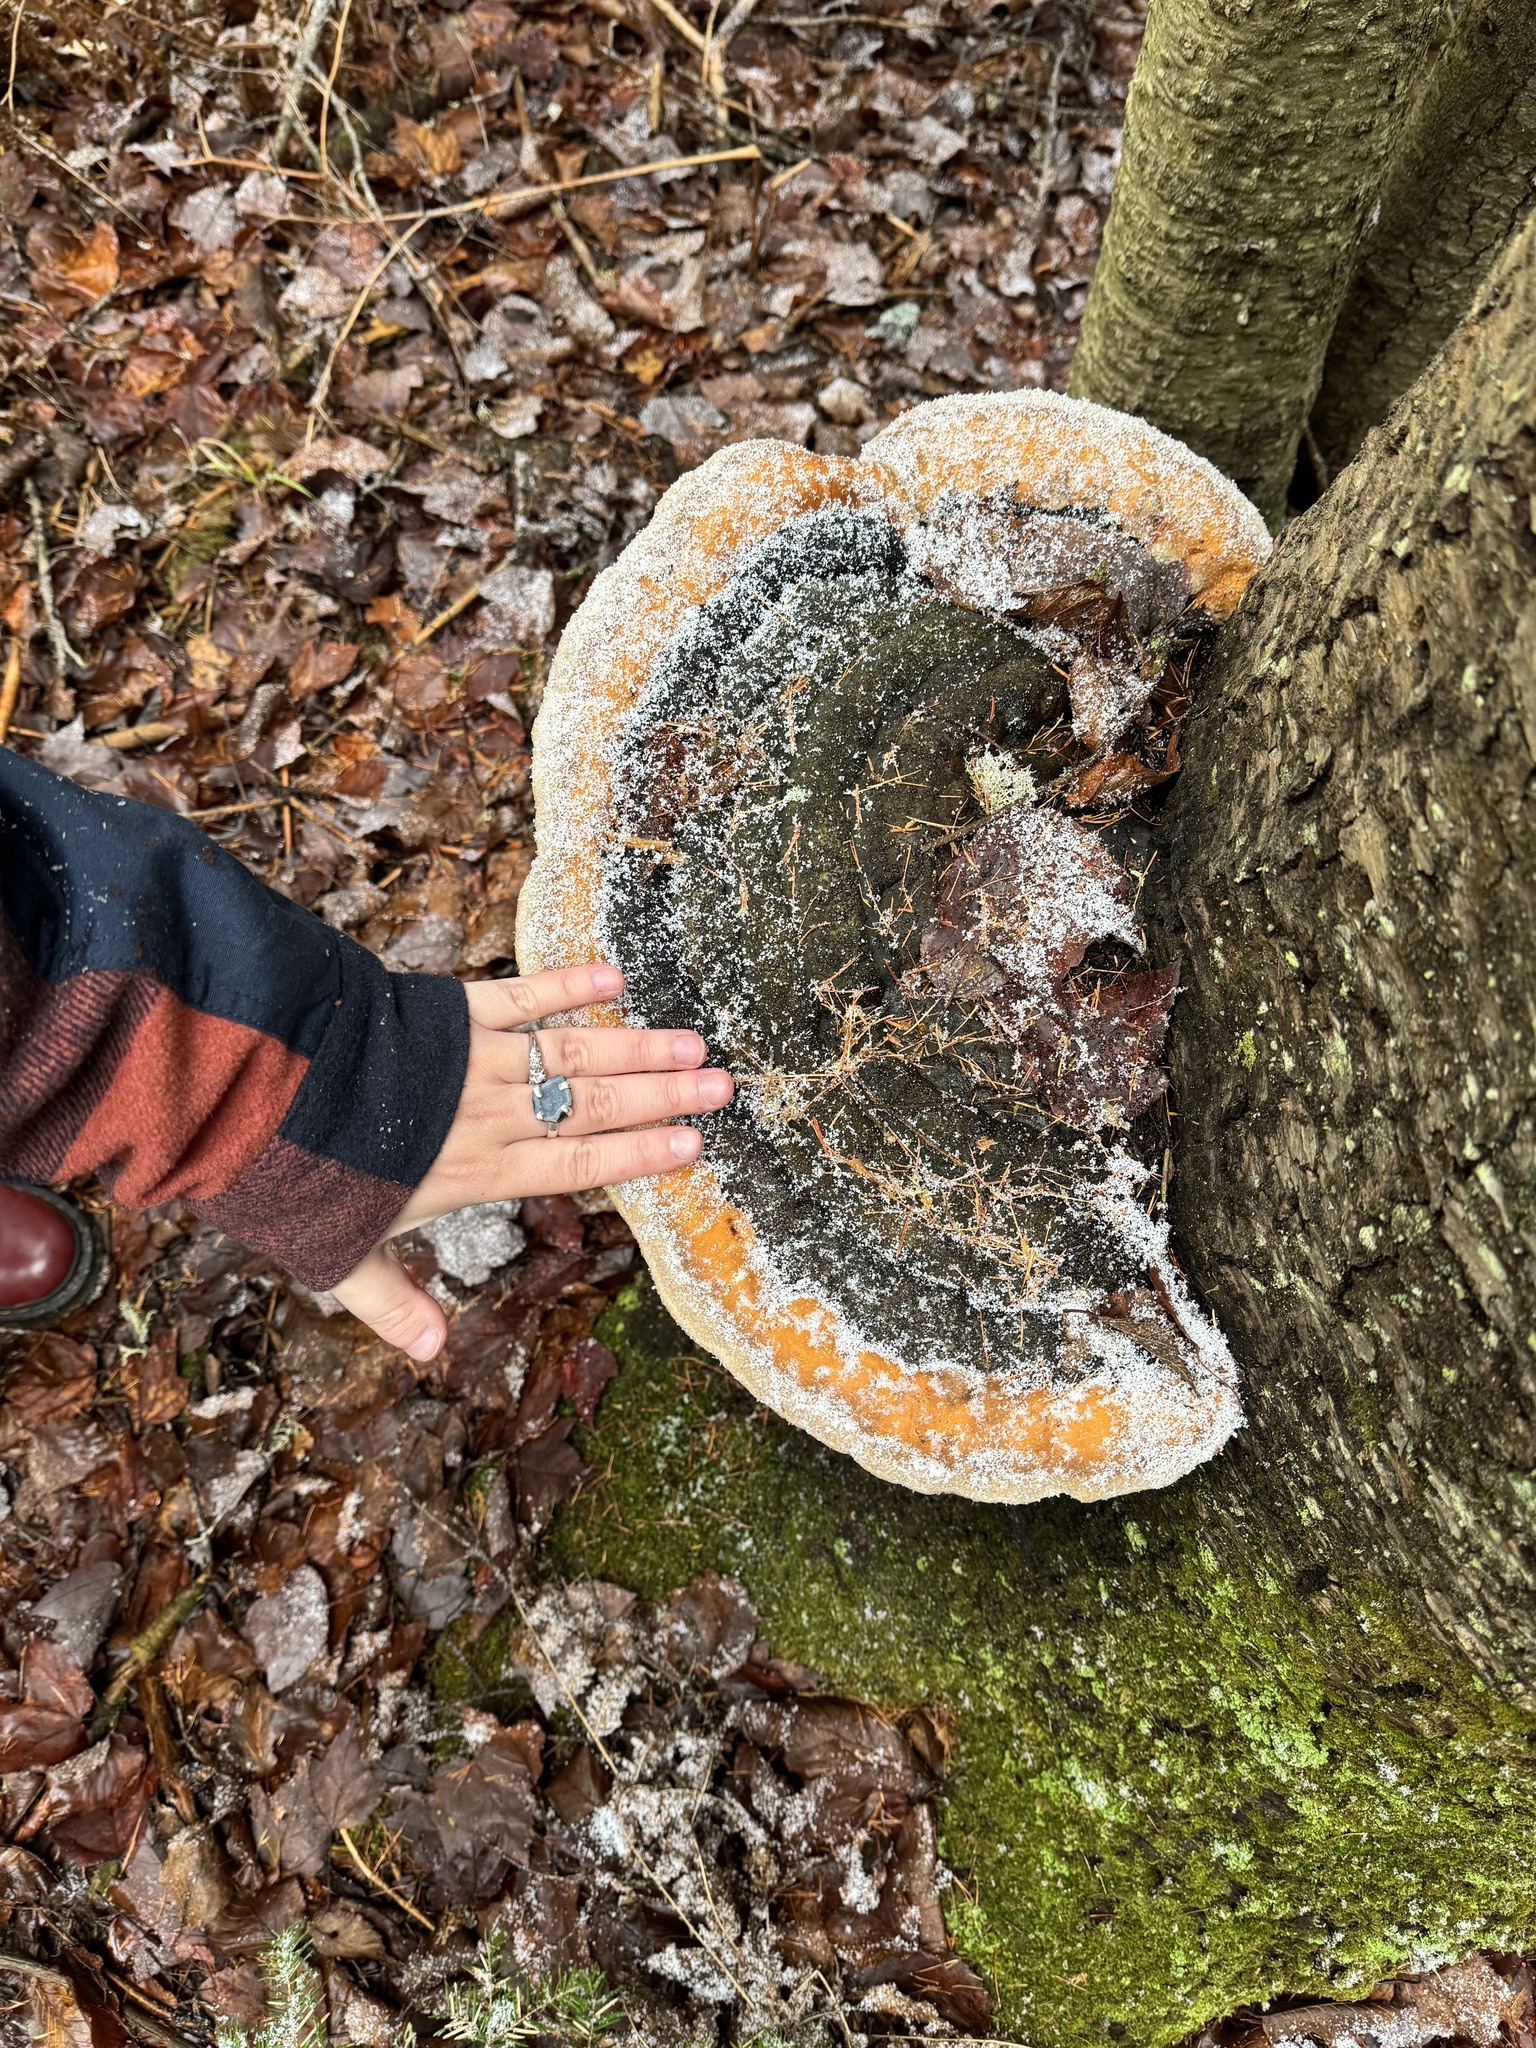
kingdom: Fungi
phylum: Basidiomycota
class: Agaricomycetes
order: Polyporales
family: Fomitopsidaceae
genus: Fomitopsis
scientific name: Fomitopsis mounceae
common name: Northern red belt
